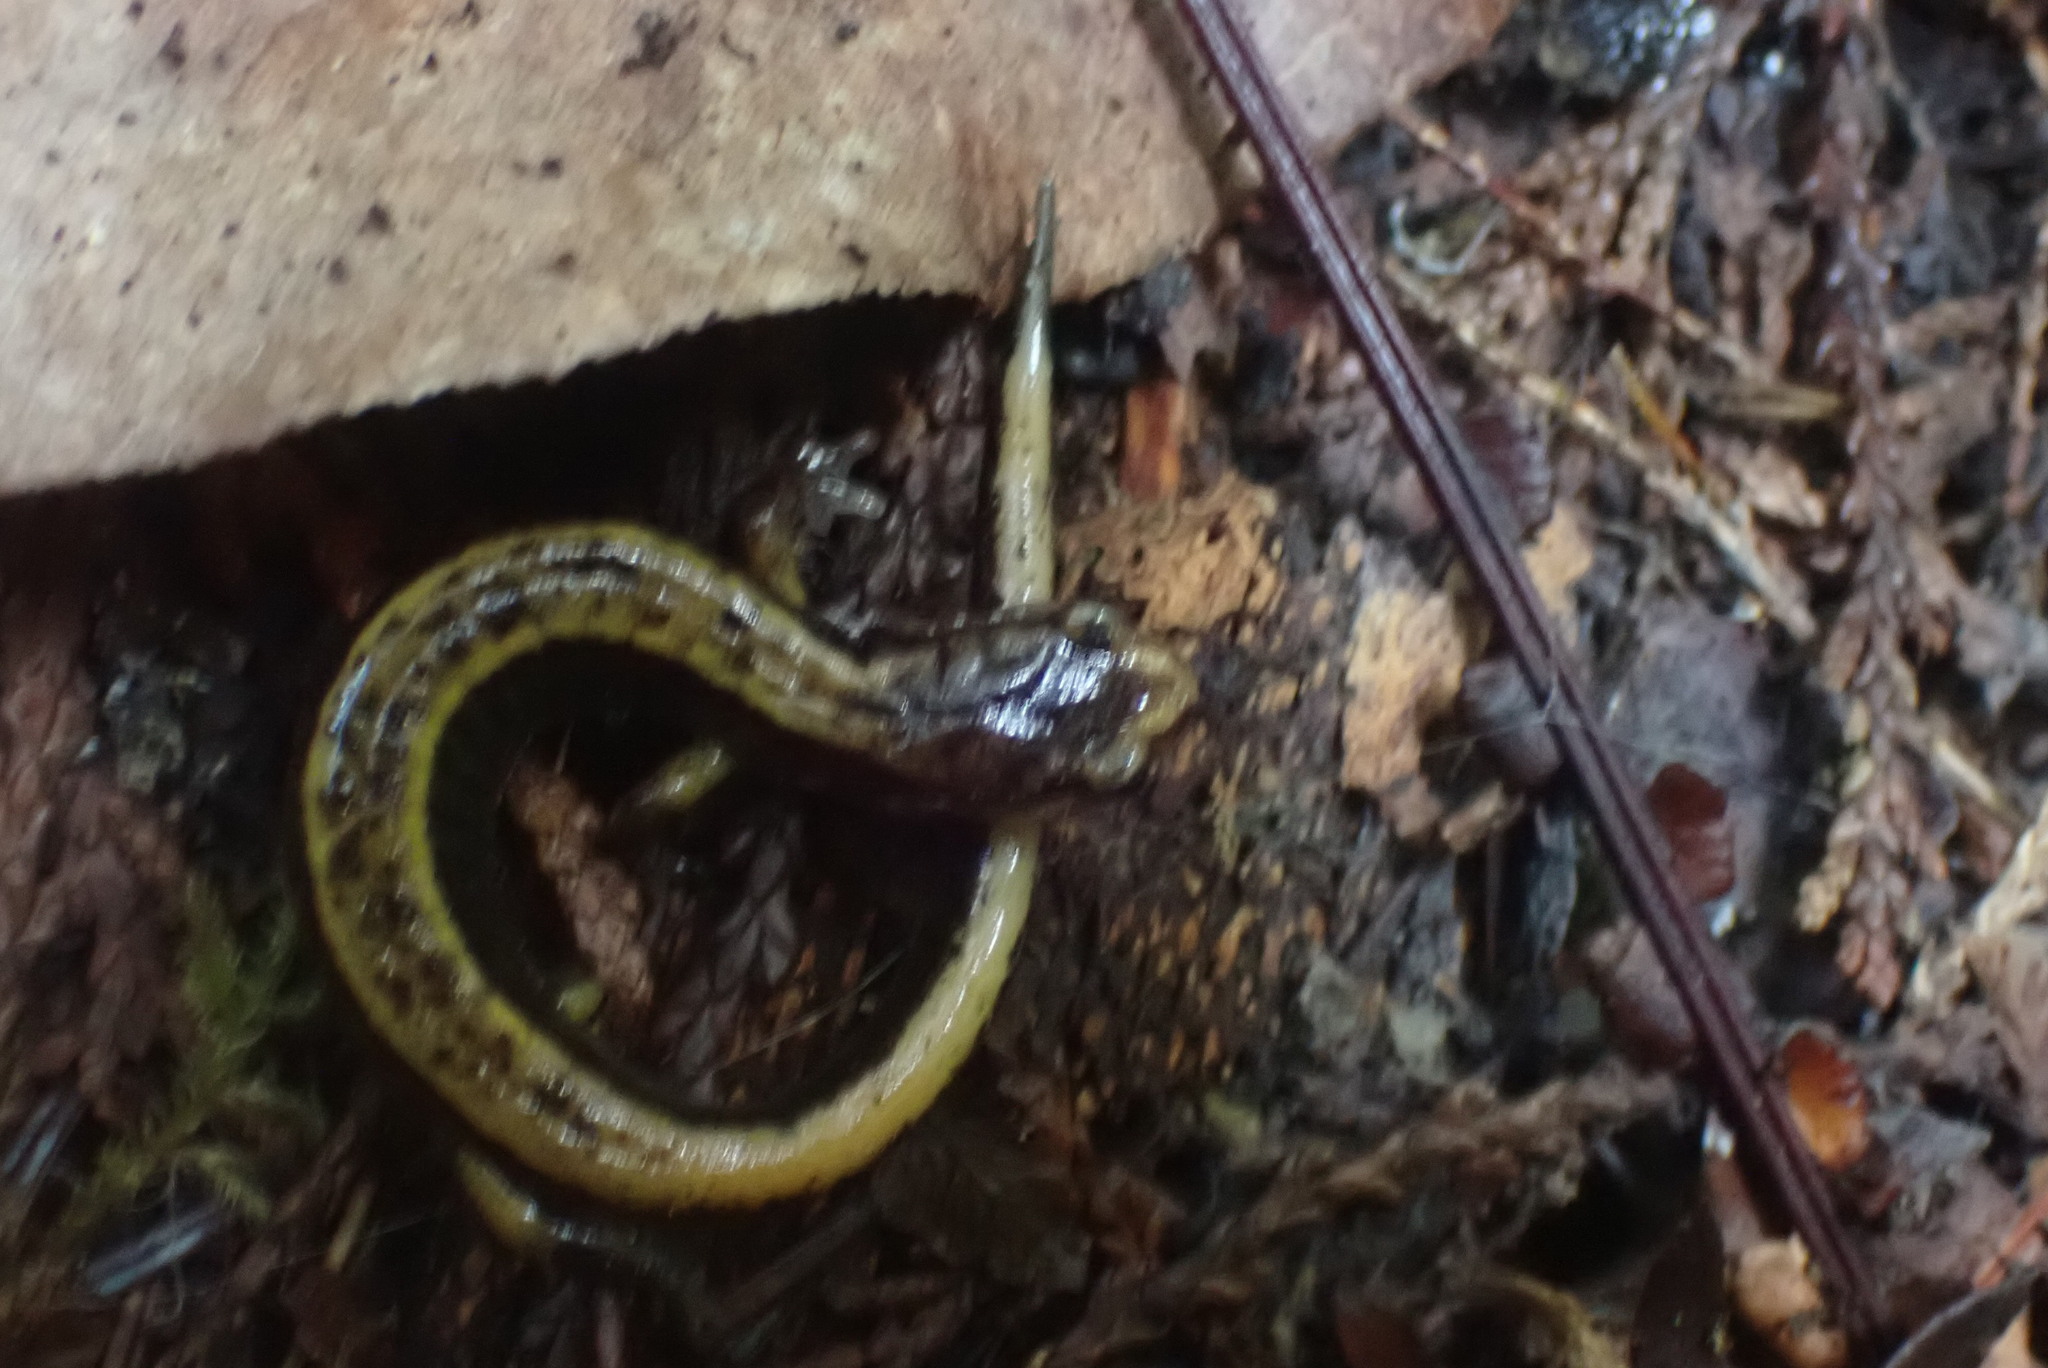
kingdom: Animalia
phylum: Chordata
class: Amphibia
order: Caudata
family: Plethodontidae
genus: Plethodon
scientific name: Plethodon vehiculum
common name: Western red-backed salamander
